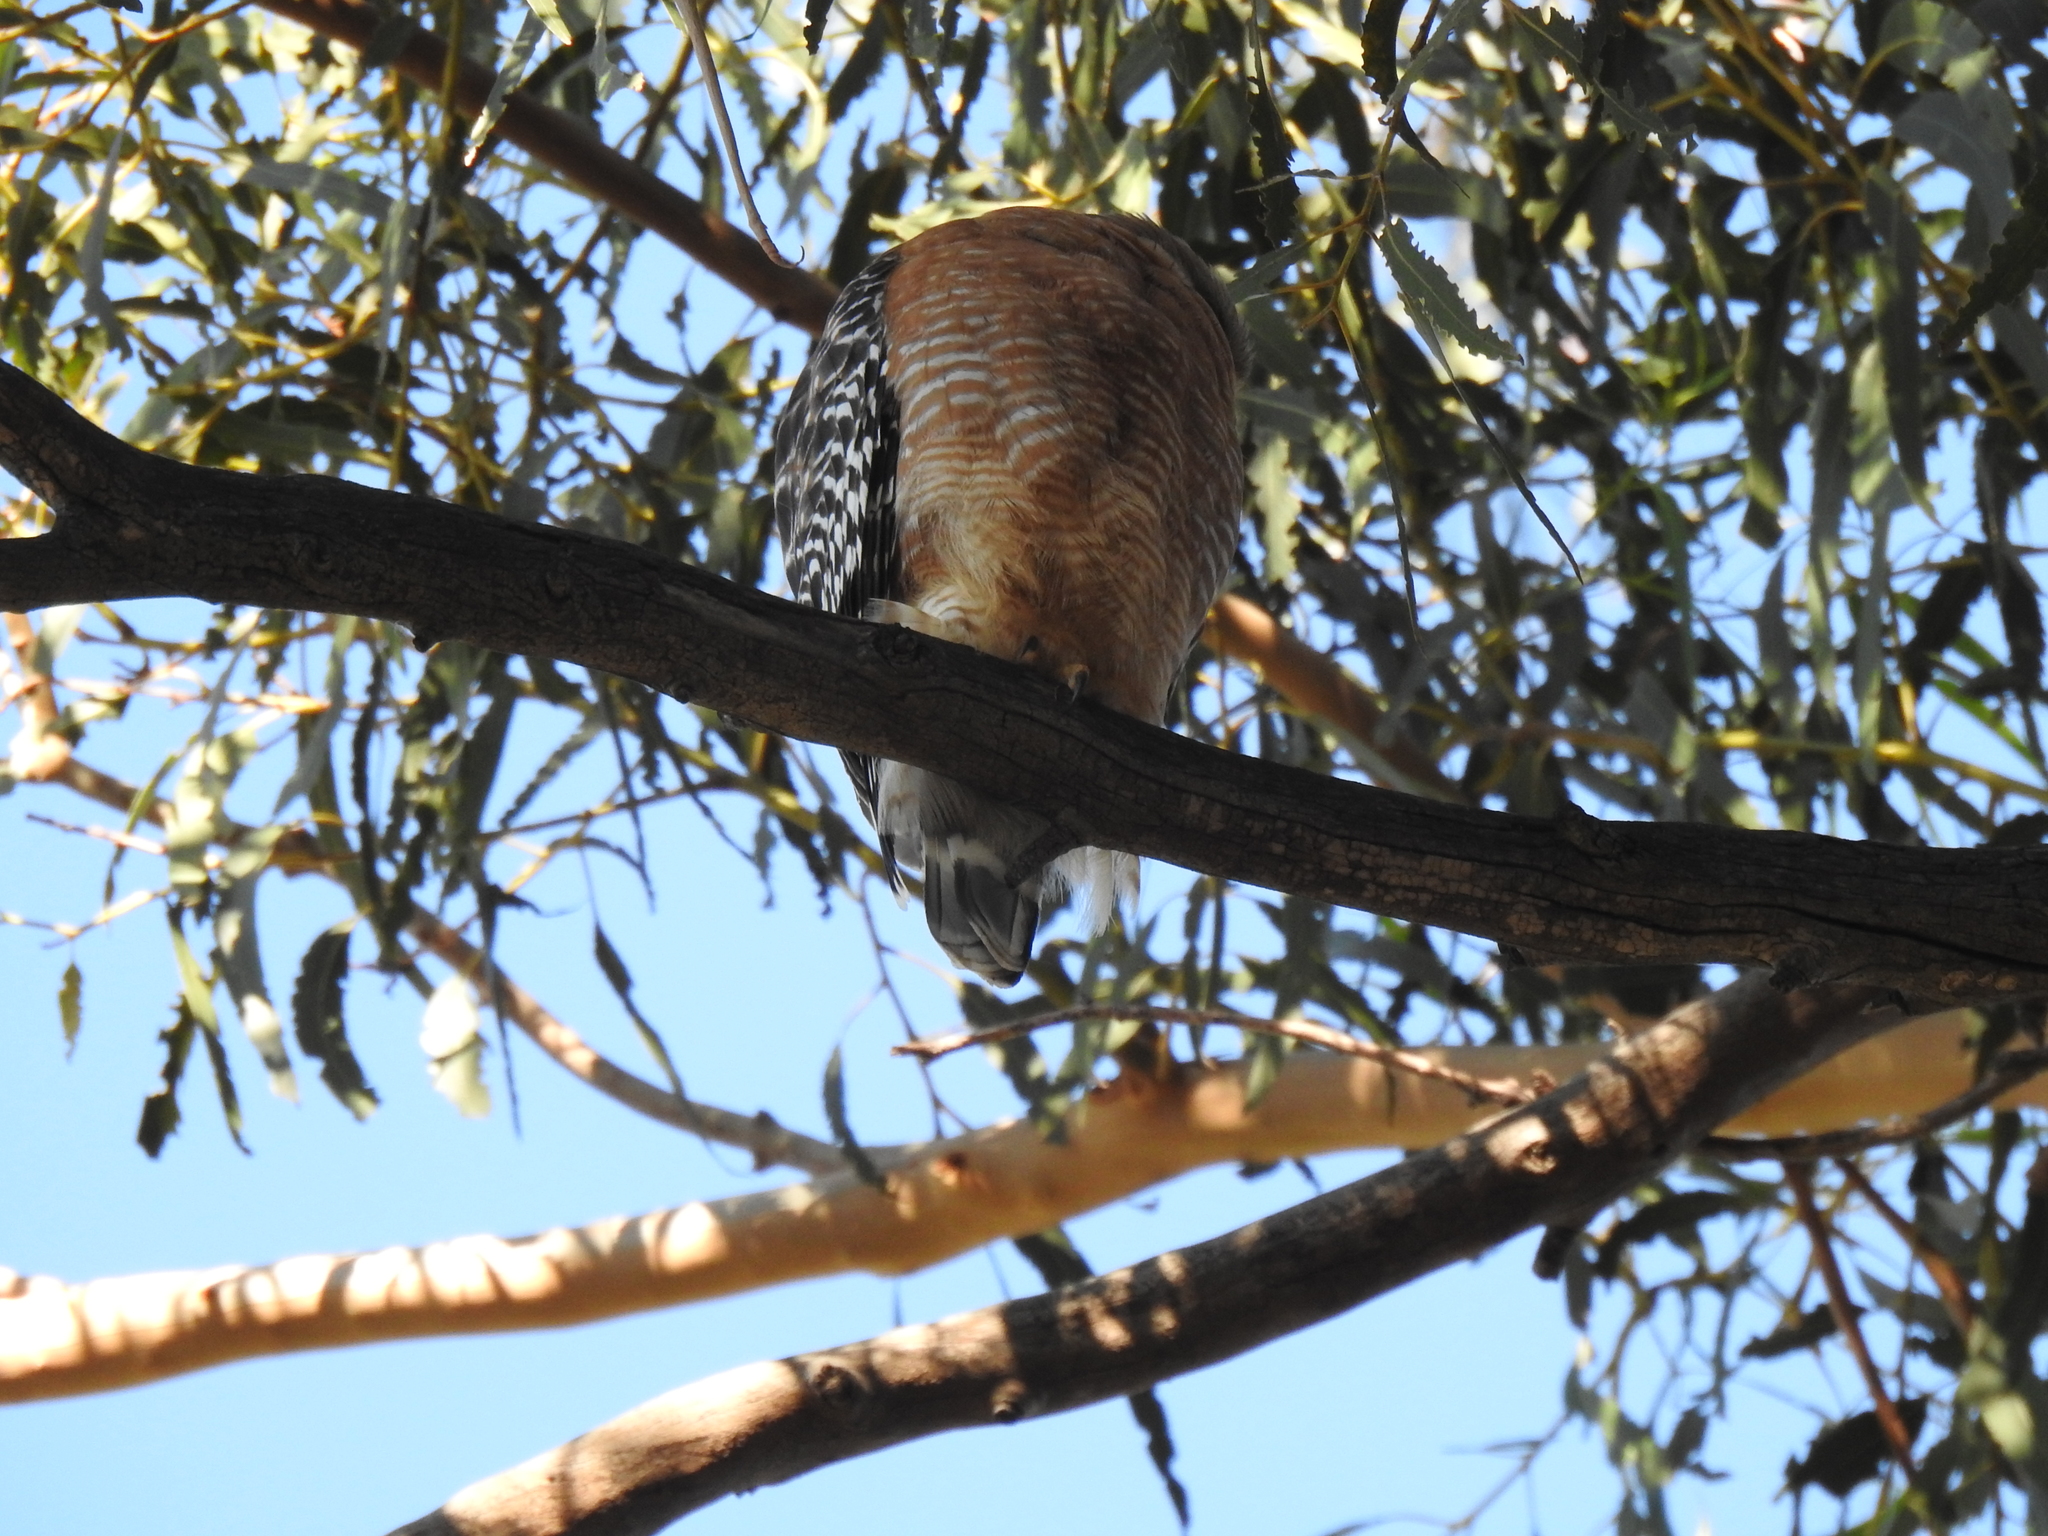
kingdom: Animalia
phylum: Chordata
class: Aves
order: Accipitriformes
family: Accipitridae
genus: Buteo
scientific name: Buteo lineatus
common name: Red-shouldered hawk
